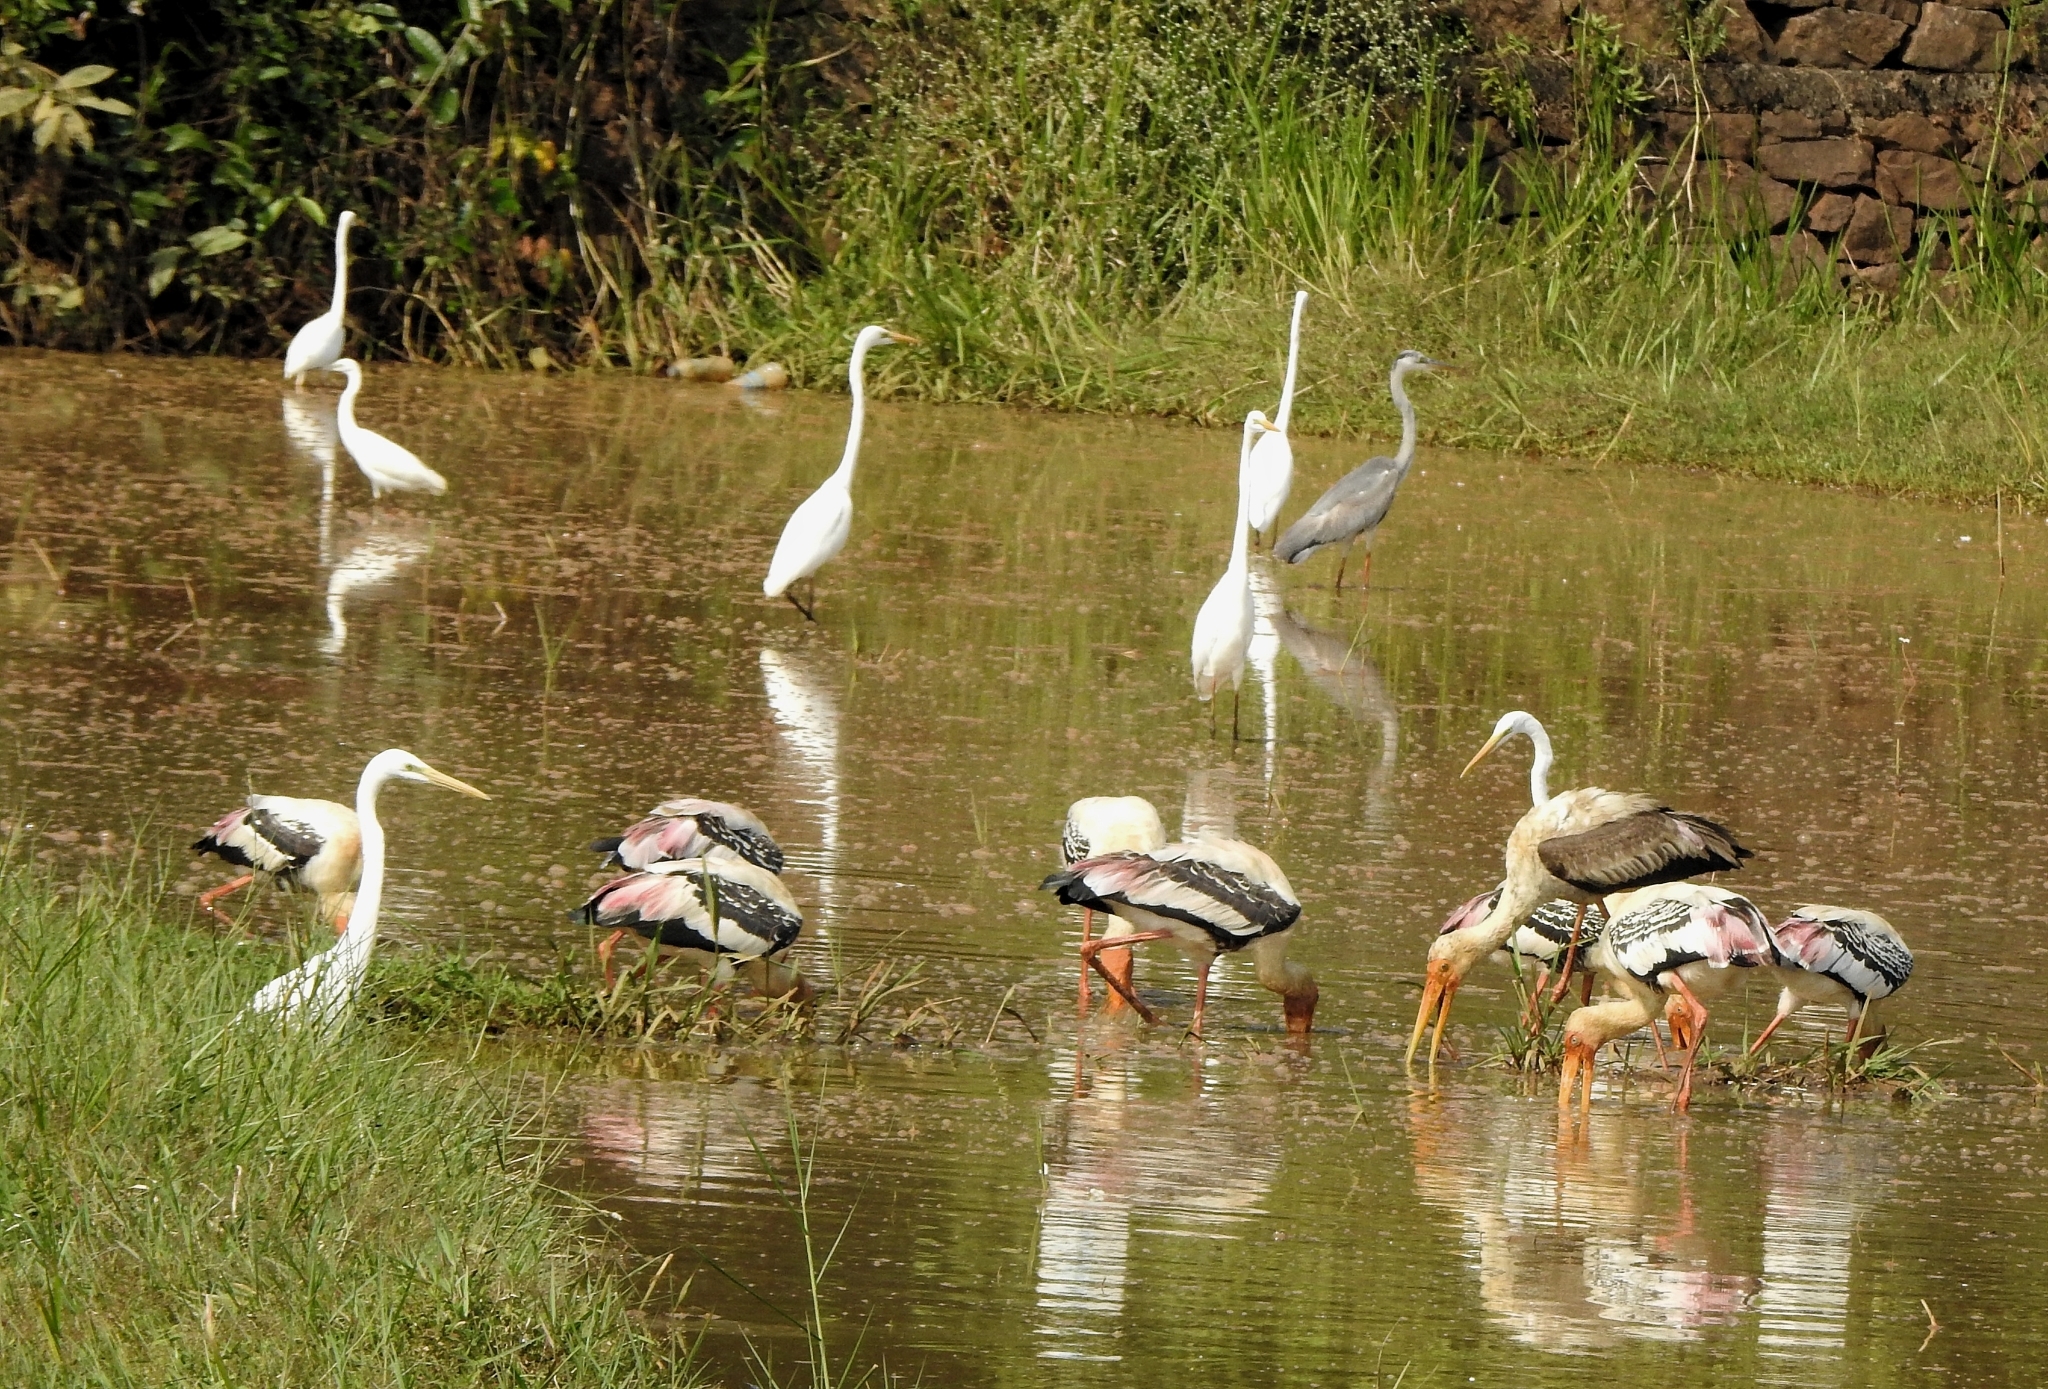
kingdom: Animalia
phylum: Chordata
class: Aves
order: Pelecaniformes
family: Ardeidae
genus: Ardea
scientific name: Ardea cinerea
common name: Grey heron
